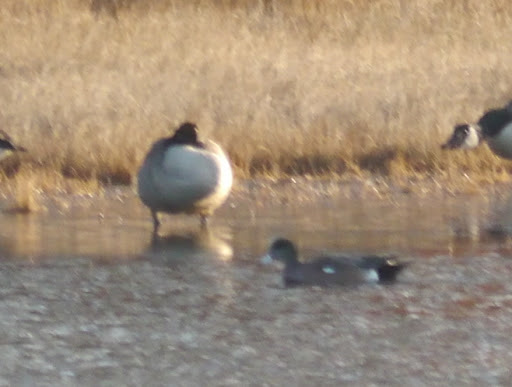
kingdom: Animalia
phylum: Chordata
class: Aves
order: Anseriformes
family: Anatidae
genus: Mareca
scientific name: Mareca americana
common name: American wigeon
